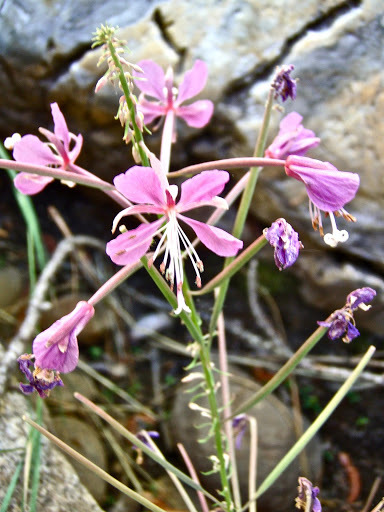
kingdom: Plantae
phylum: Tracheophyta
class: Magnoliopsida
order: Myrtales
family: Onagraceae
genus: Chamaenerion
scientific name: Chamaenerion angustifolium
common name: Fireweed
